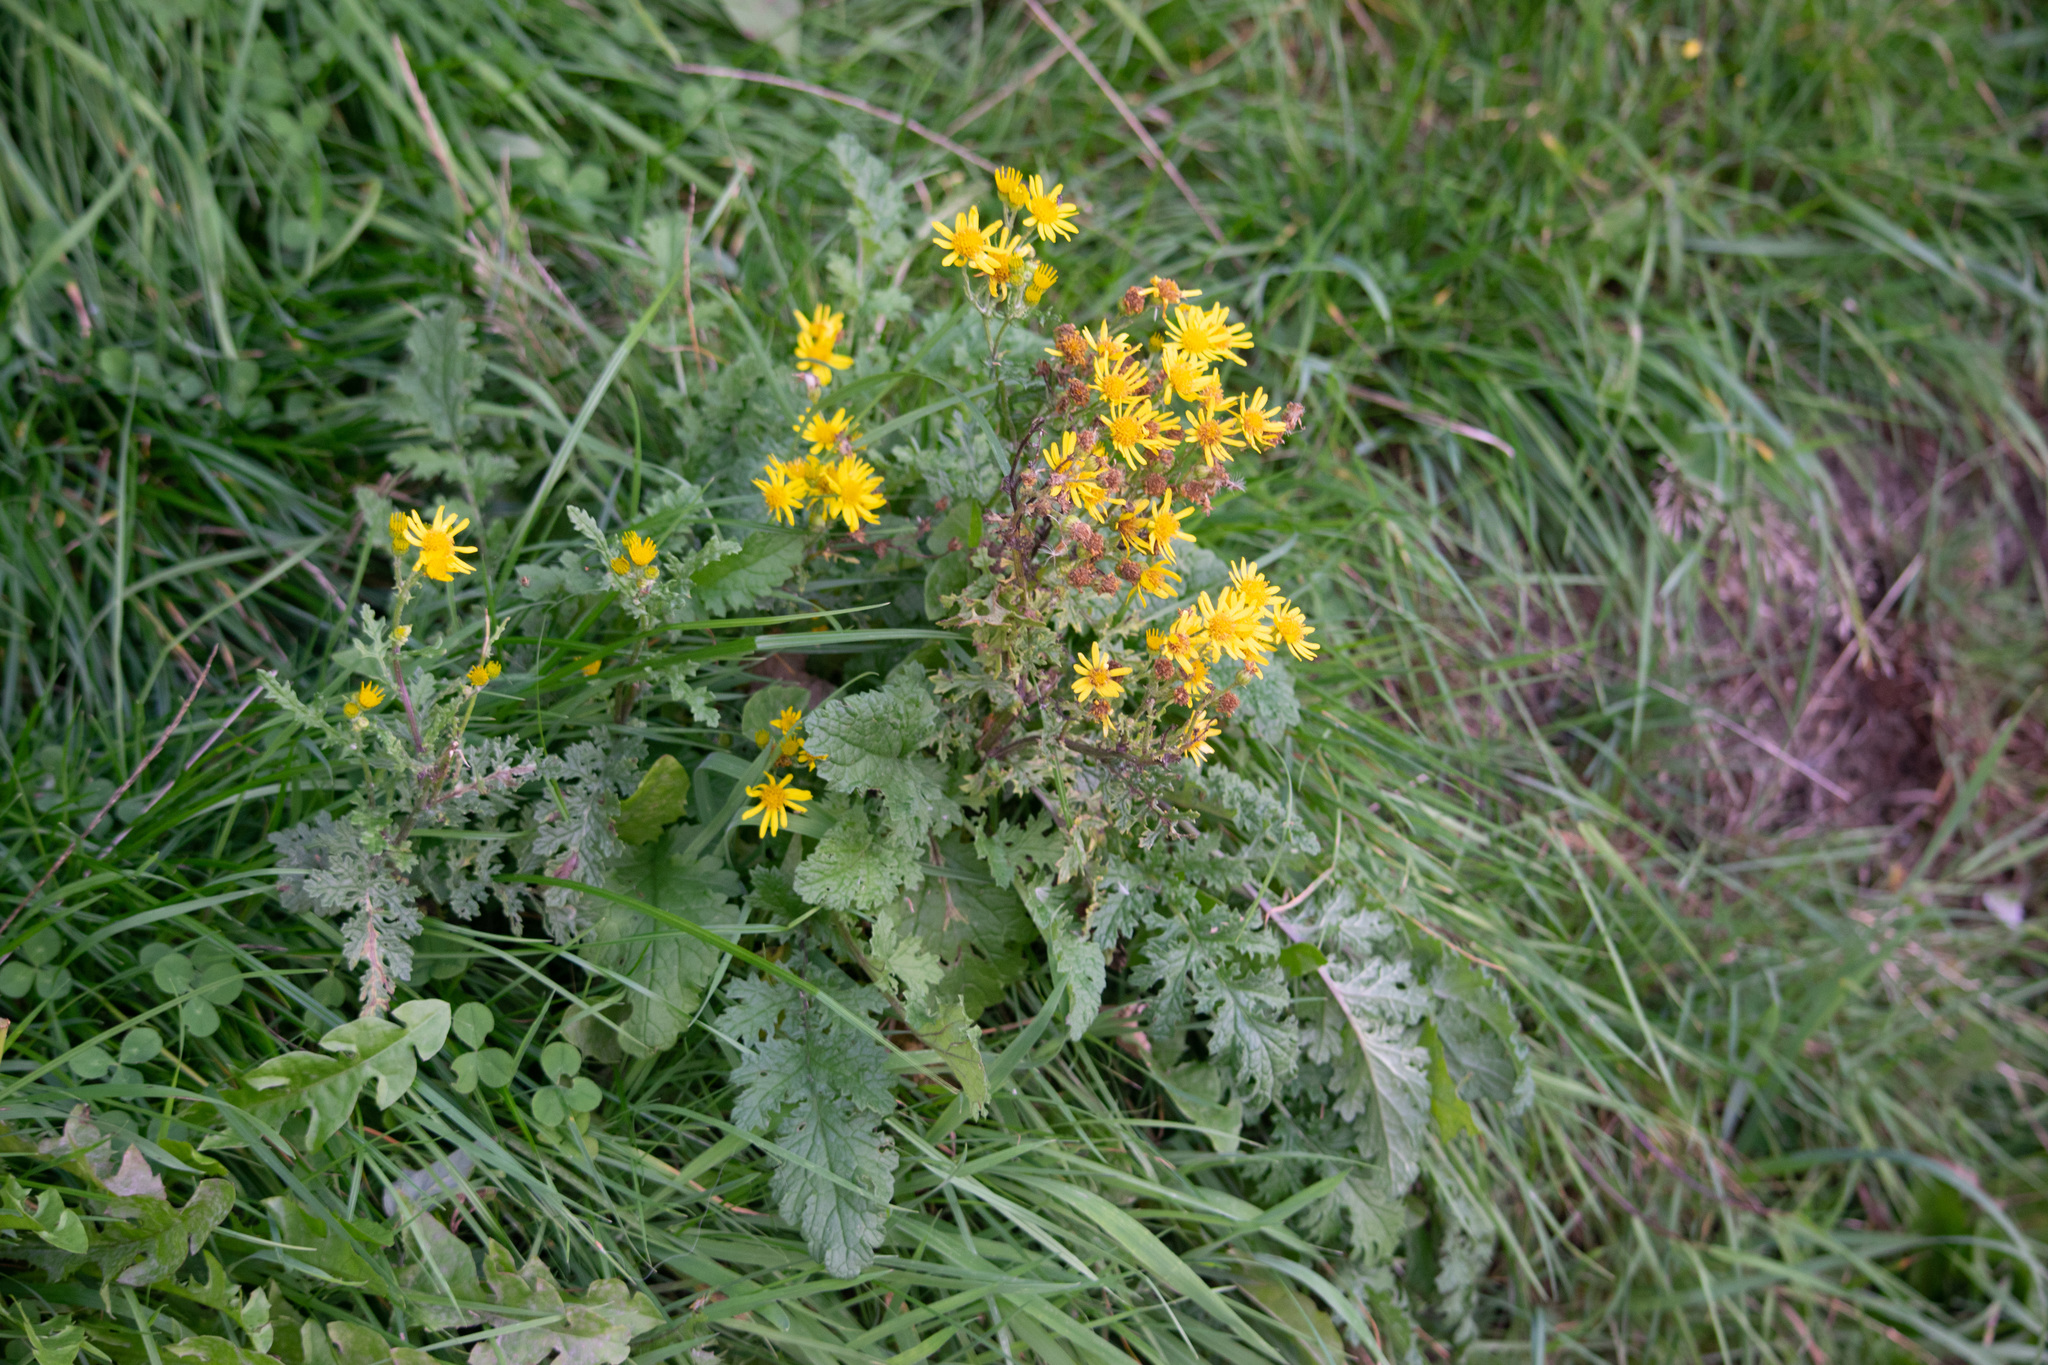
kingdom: Plantae
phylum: Tracheophyta
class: Magnoliopsida
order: Asterales
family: Asteraceae
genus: Jacobaea
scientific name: Jacobaea vulgaris
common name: Stinking willie
